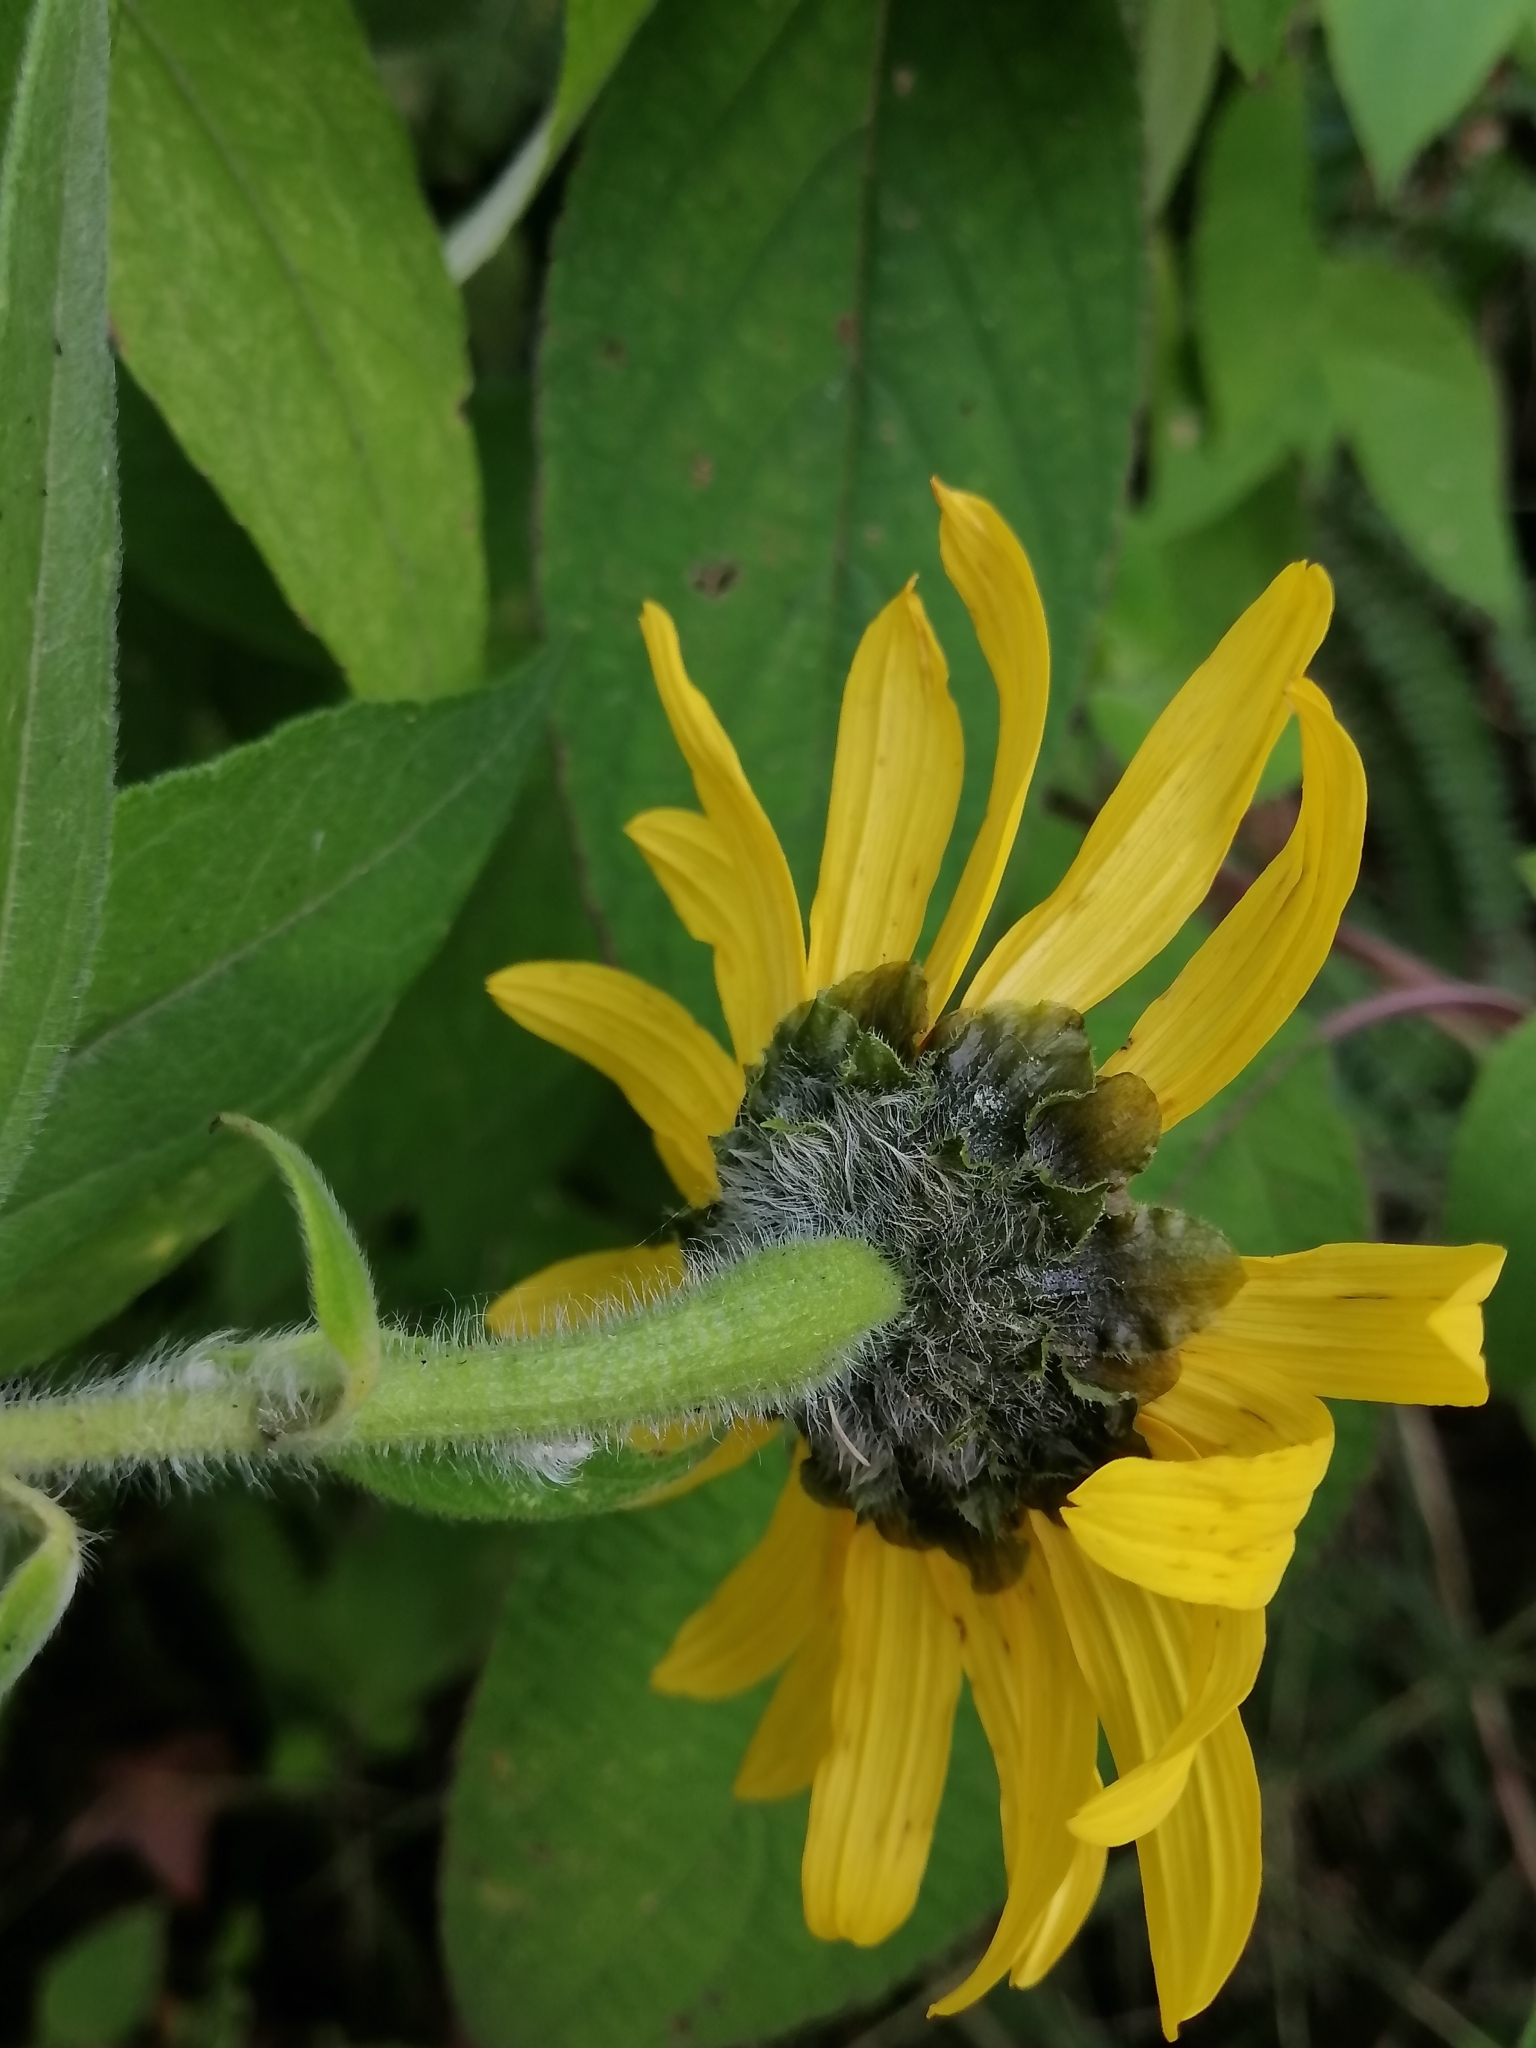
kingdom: Plantae
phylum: Tracheophyta
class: Magnoliopsida
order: Asterales
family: Asteraceae
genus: Tithonia
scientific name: Tithonia longiradiata
